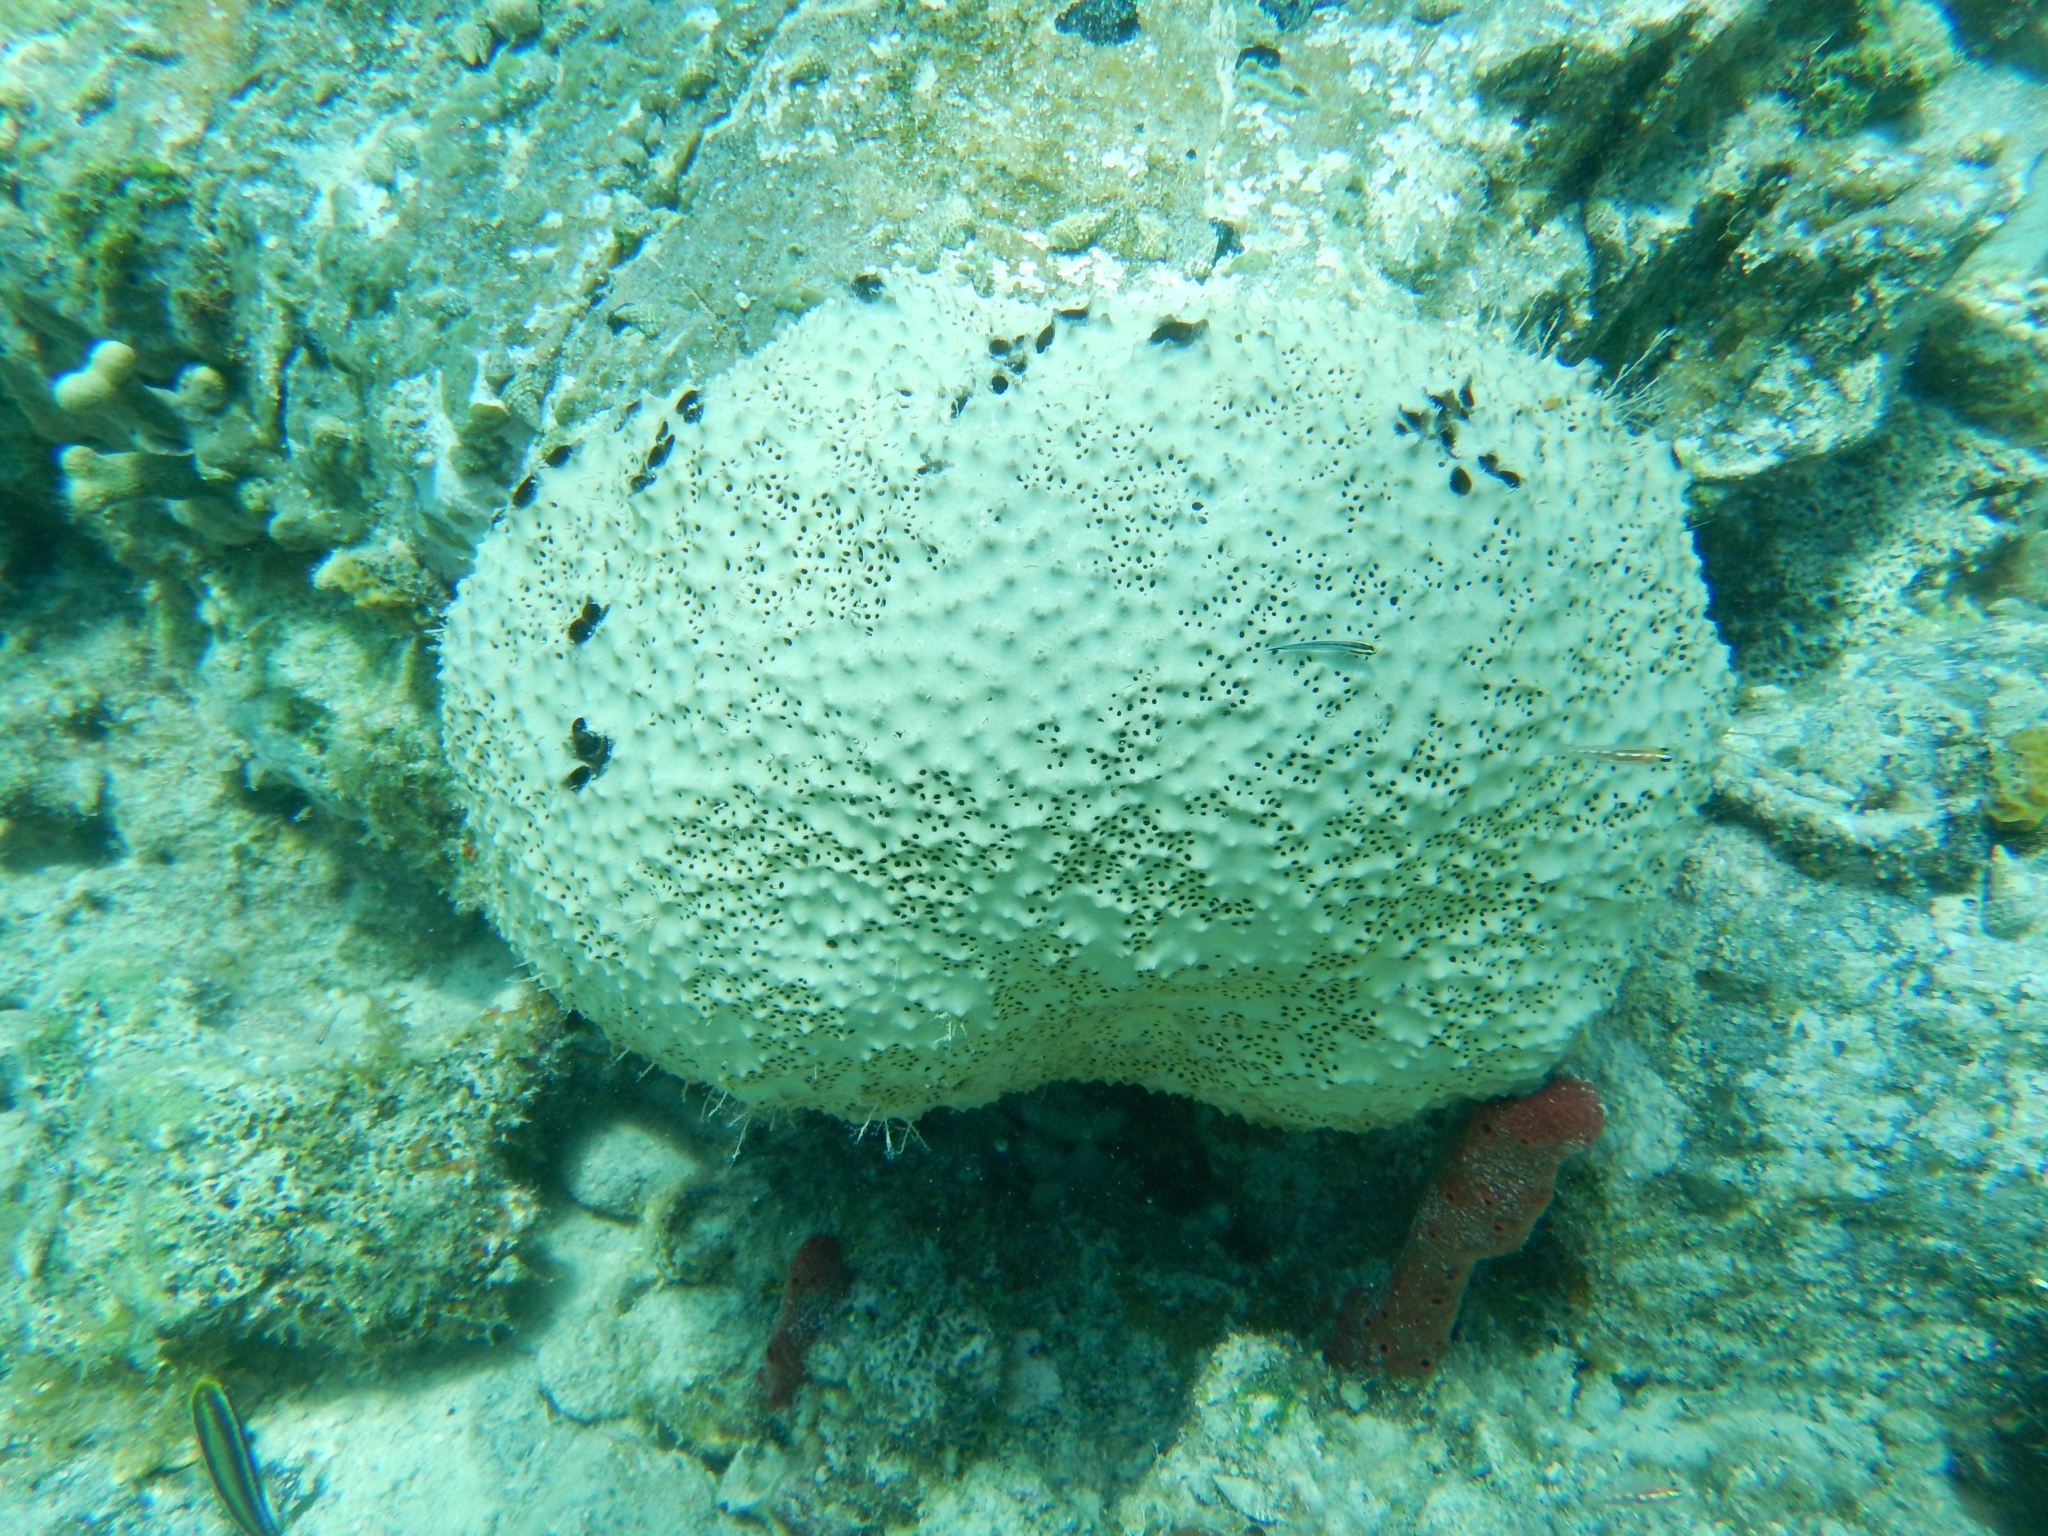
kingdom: Animalia
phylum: Porifera
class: Demospongiae
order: Dictyoceratida
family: Irciniidae
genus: Ircinia
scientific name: Ircinia felix
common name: Stinker sponge
